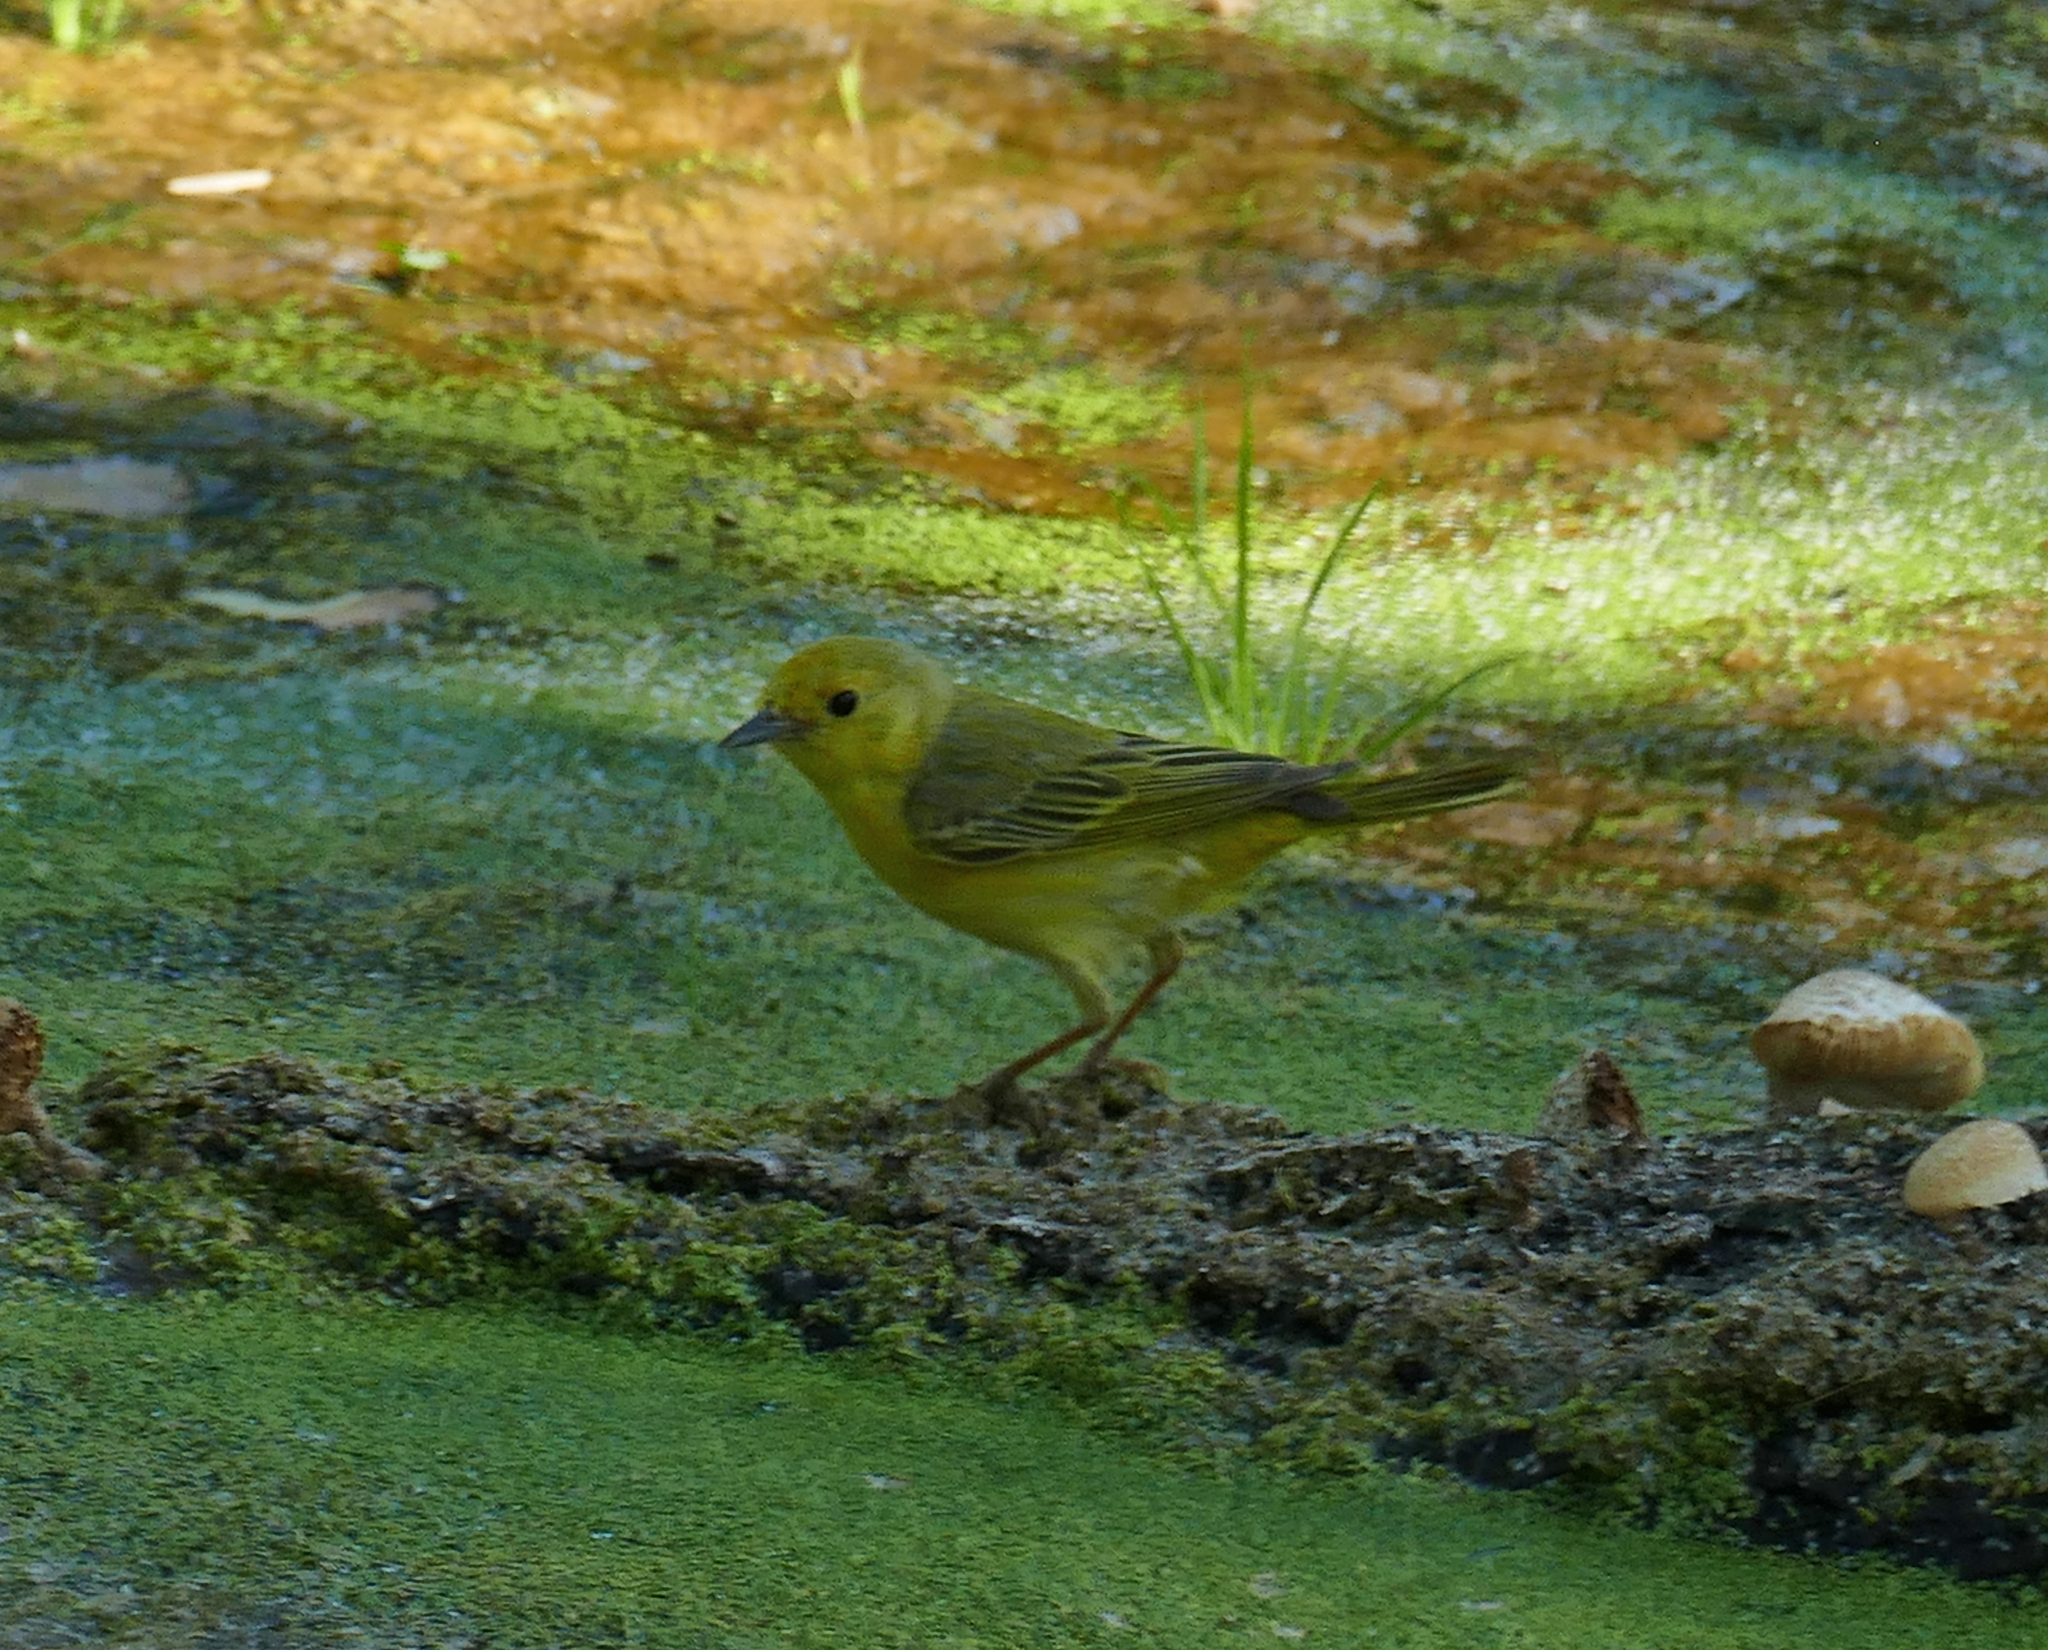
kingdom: Animalia
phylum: Chordata
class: Aves
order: Passeriformes
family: Parulidae
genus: Setophaga
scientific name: Setophaga petechia
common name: Yellow warbler
